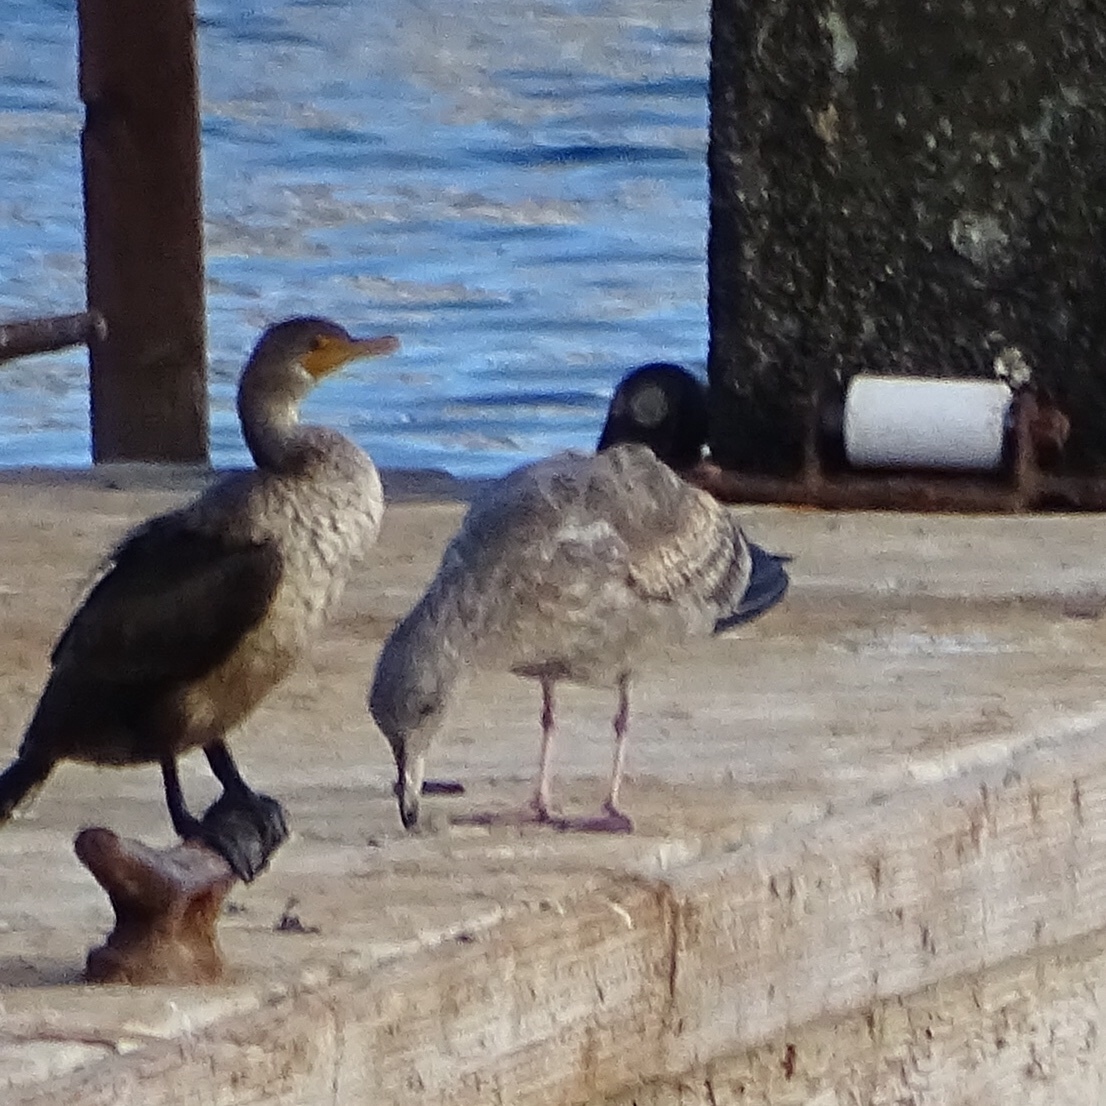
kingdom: Animalia
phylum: Chordata
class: Aves
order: Charadriiformes
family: Laridae
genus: Larus
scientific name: Larus occidentalis
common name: Western gull
